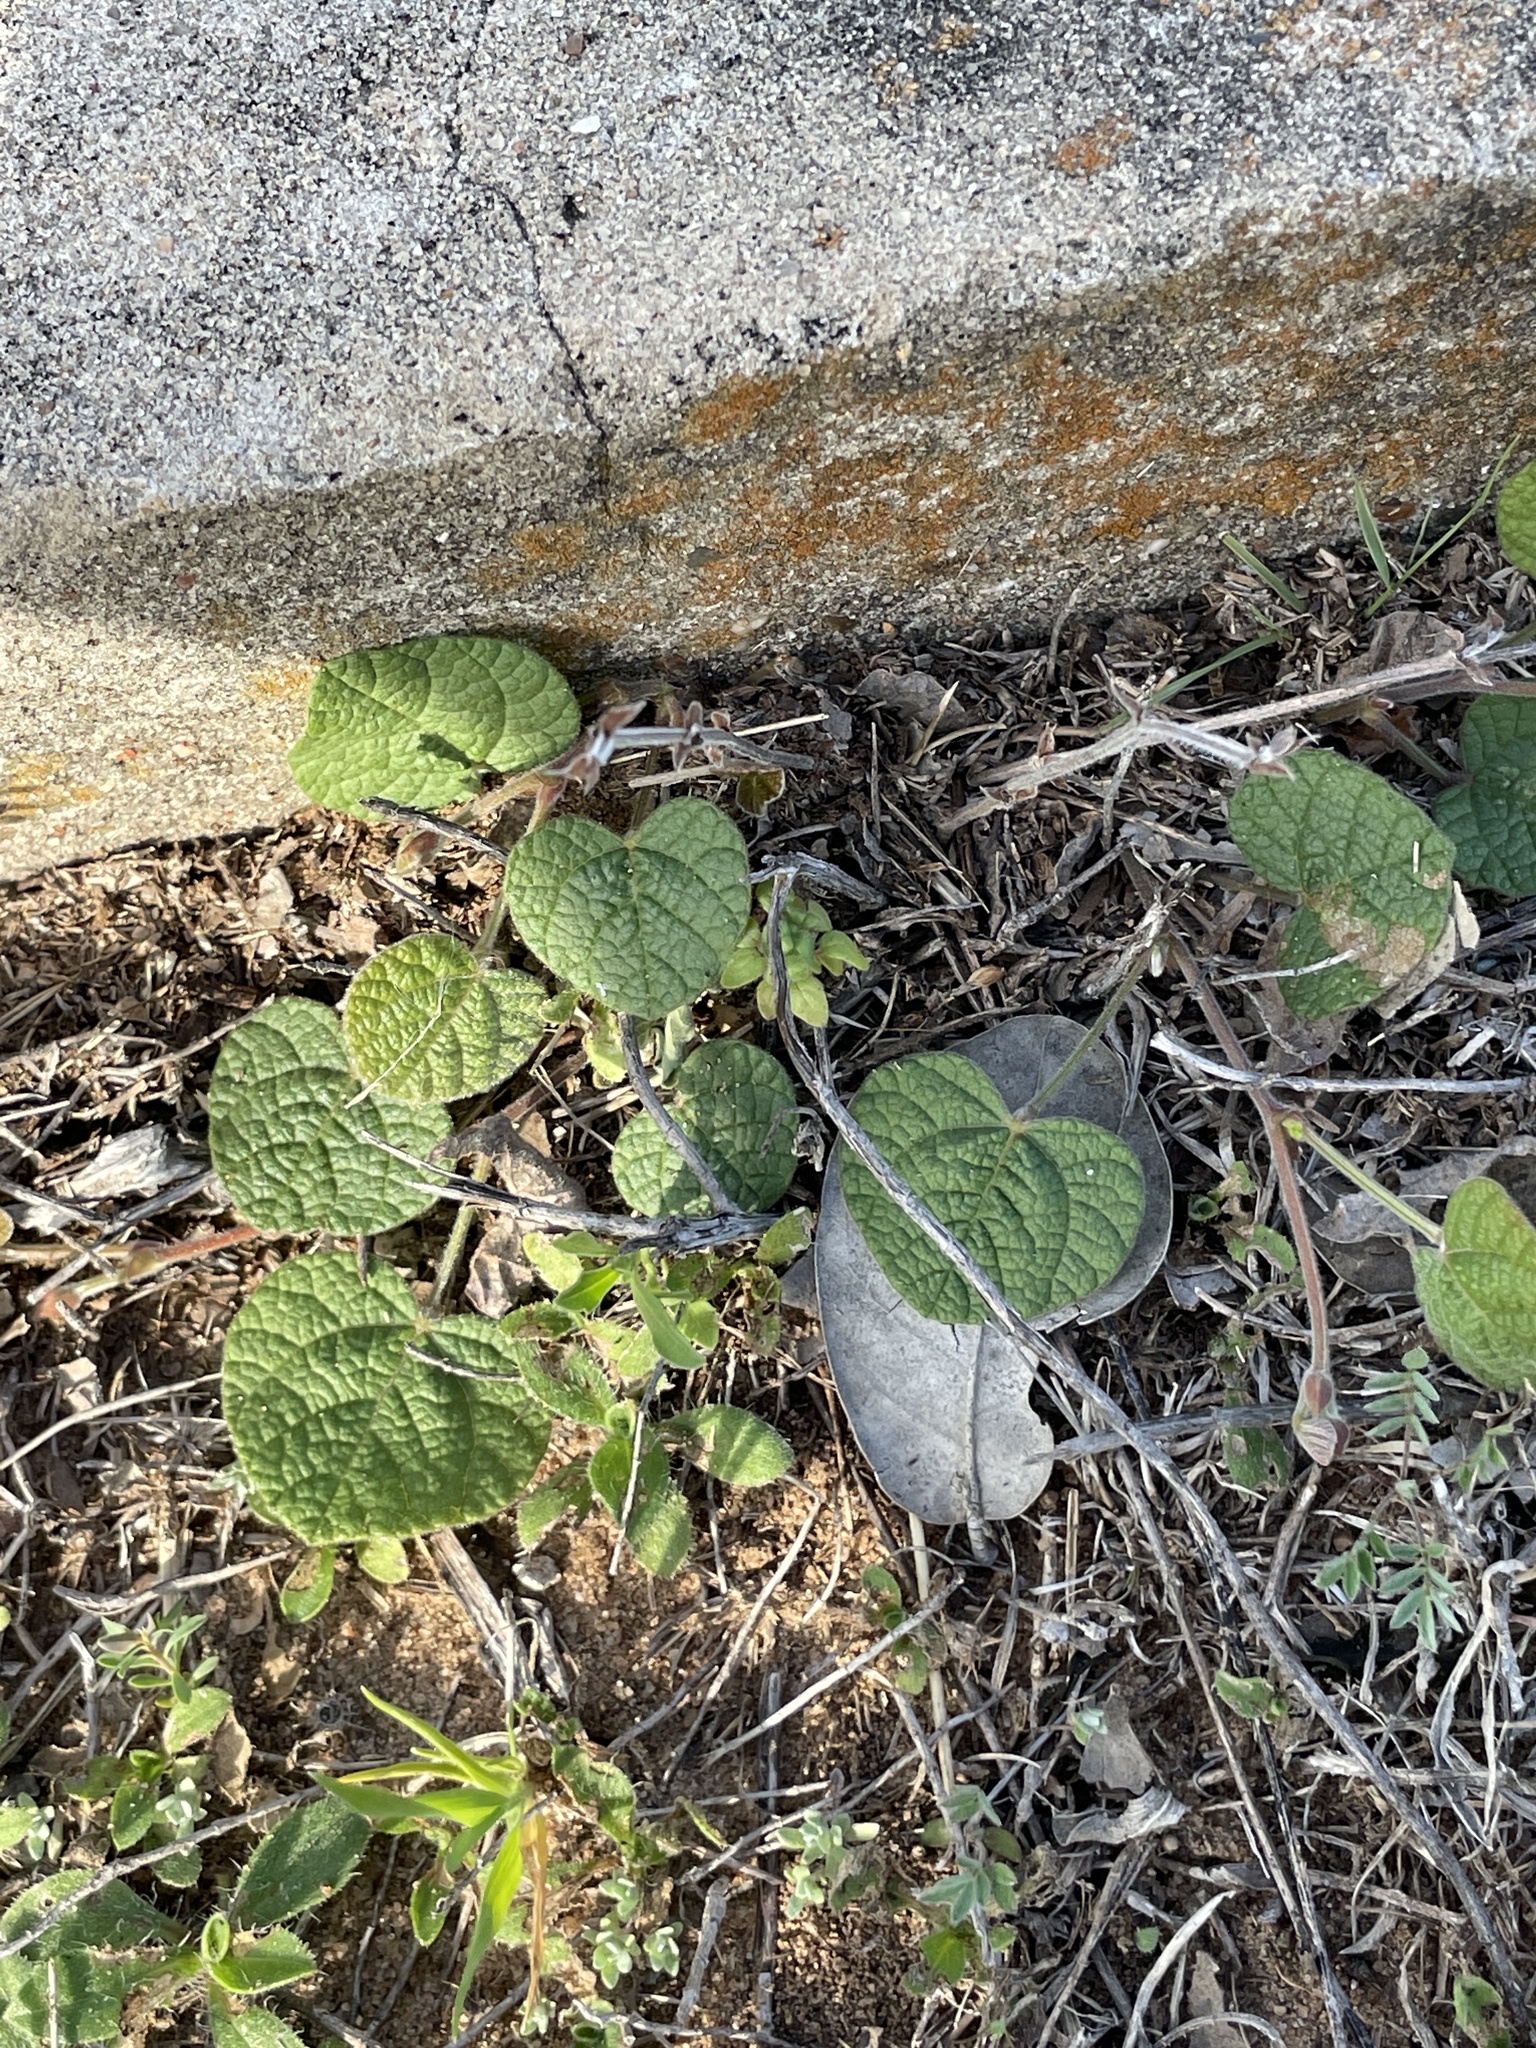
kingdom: Plantae
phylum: Tracheophyta
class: Magnoliopsida
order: Fabales
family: Fabaceae
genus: Rhynchosia
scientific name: Rhynchosia americana
